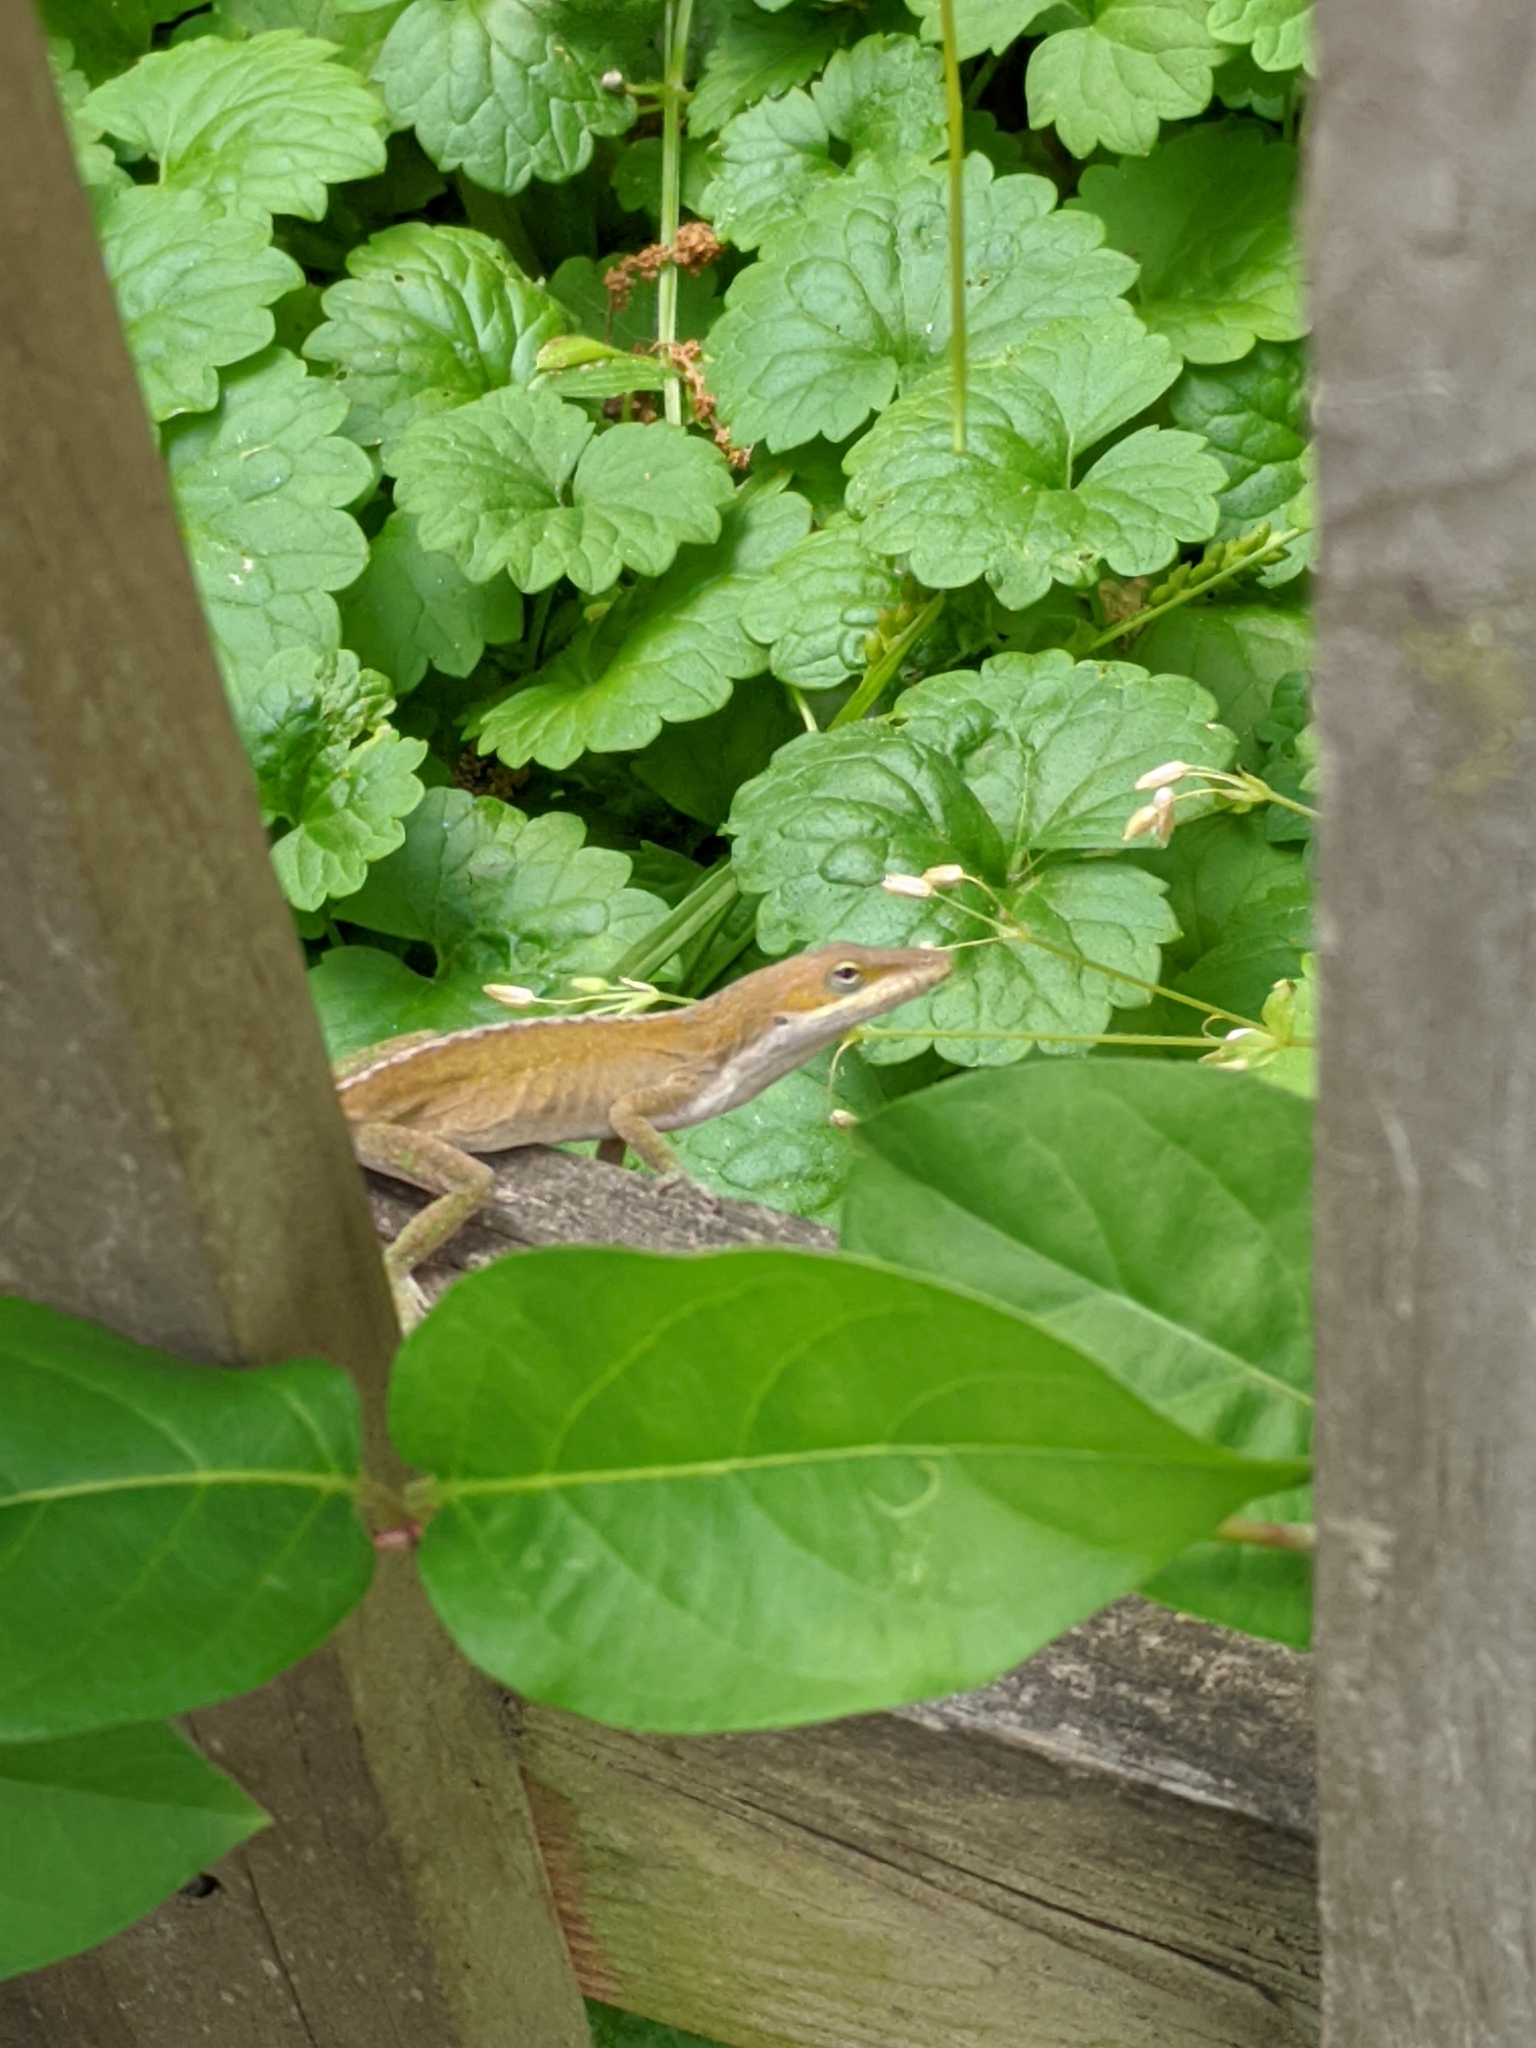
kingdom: Animalia
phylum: Chordata
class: Squamata
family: Dactyloidae
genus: Anolis
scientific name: Anolis carolinensis
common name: Green anole
